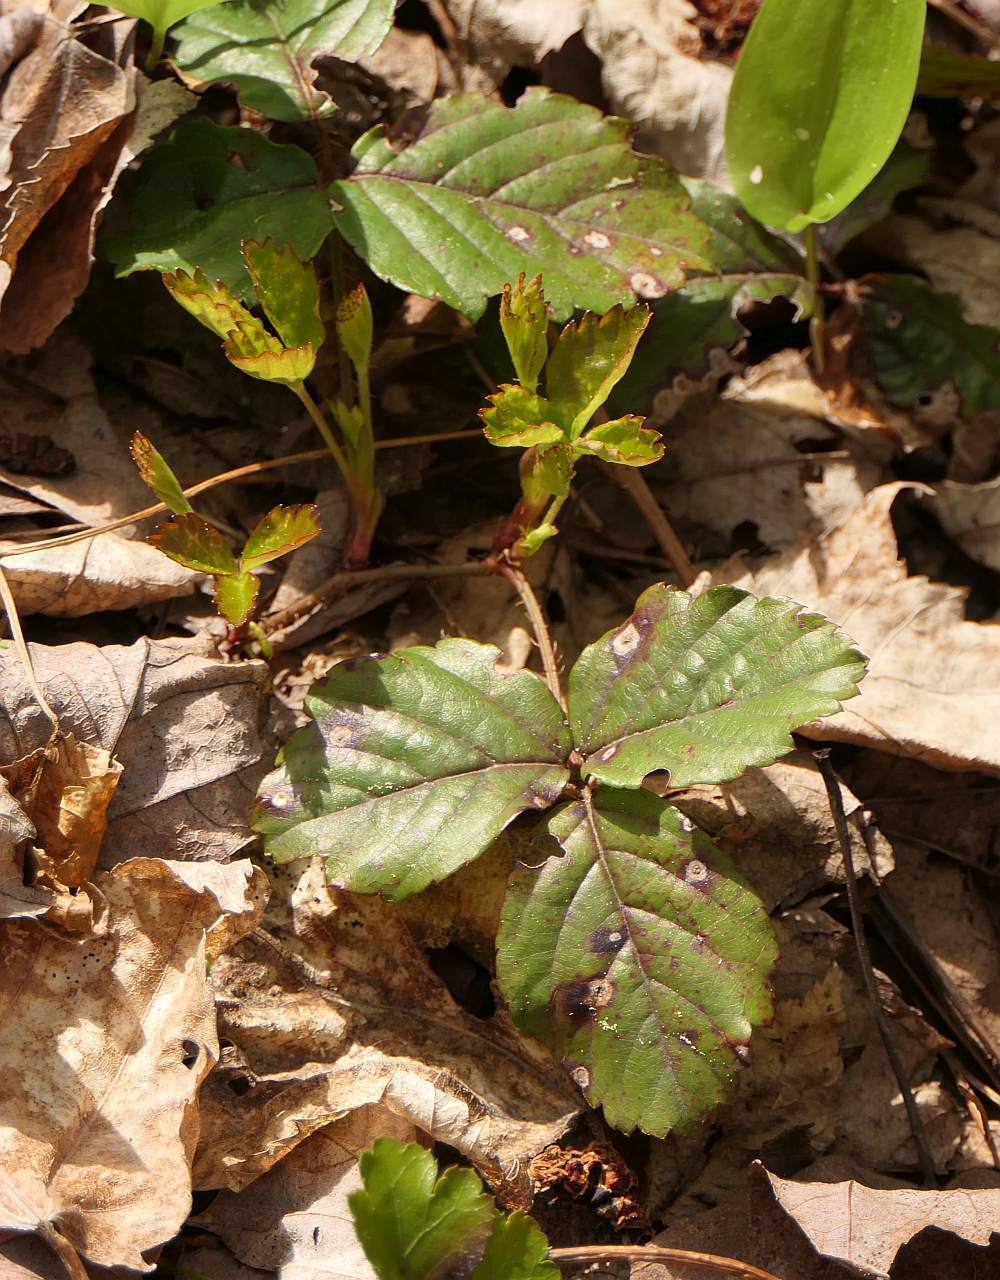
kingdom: Plantae
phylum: Tracheophyta
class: Magnoliopsida
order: Rosales
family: Rosaceae
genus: Rubus
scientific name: Rubus hispidus
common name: Running blackberry
